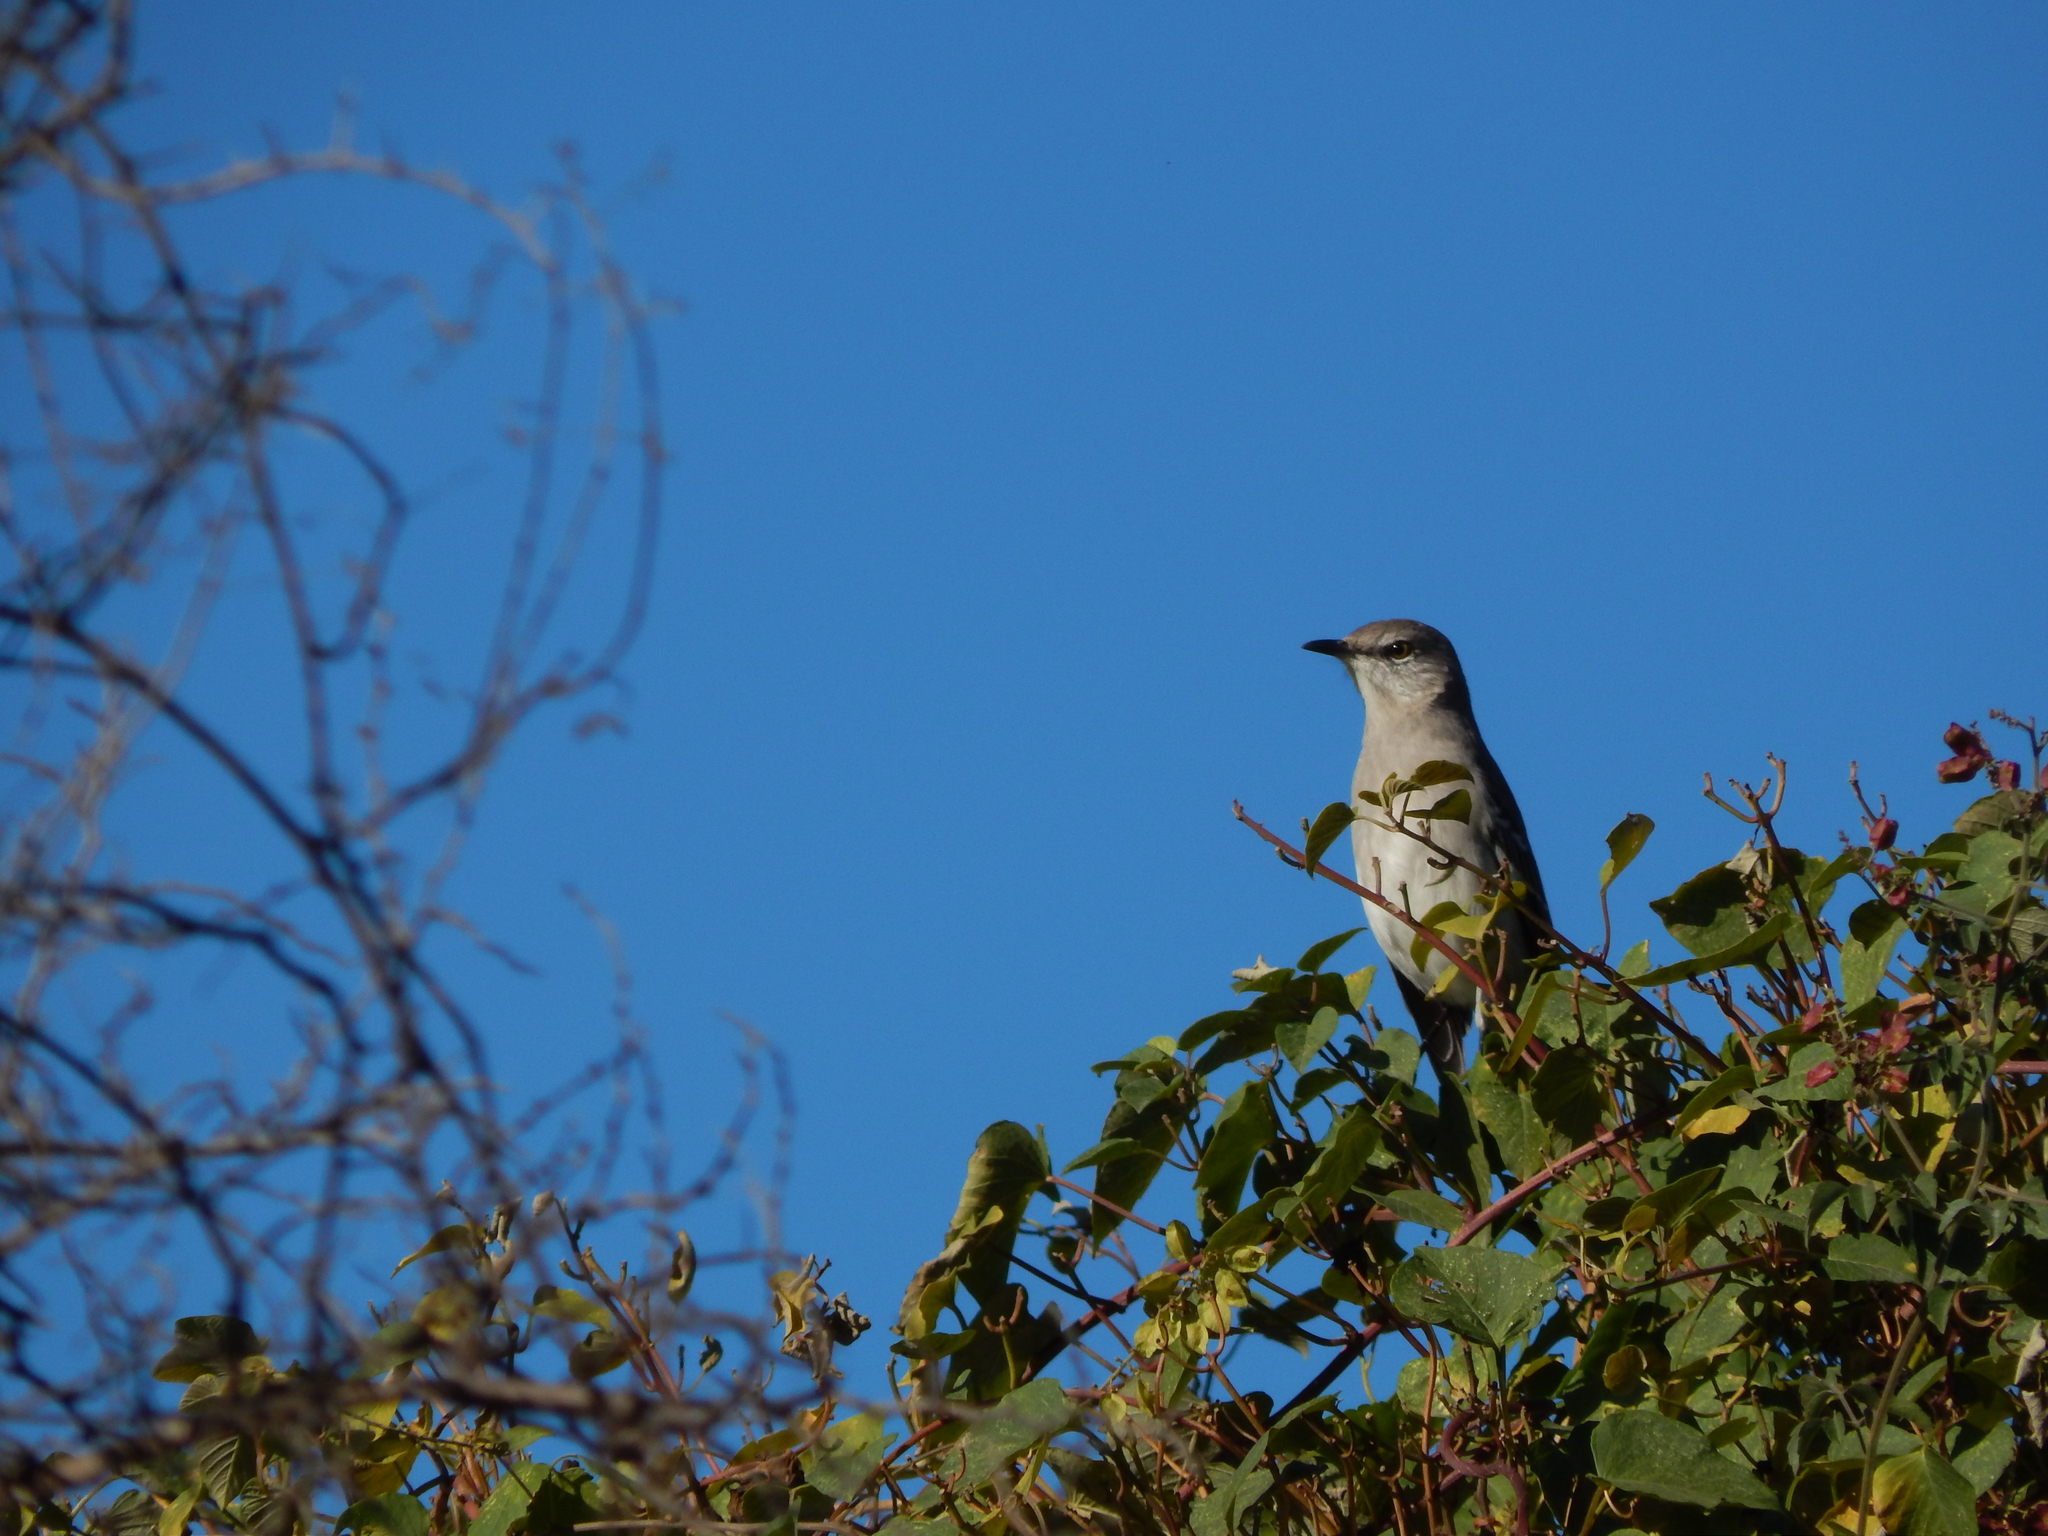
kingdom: Animalia
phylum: Chordata
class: Aves
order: Passeriformes
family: Mimidae
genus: Mimus
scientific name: Mimus polyglottos
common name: Northern mockingbird
